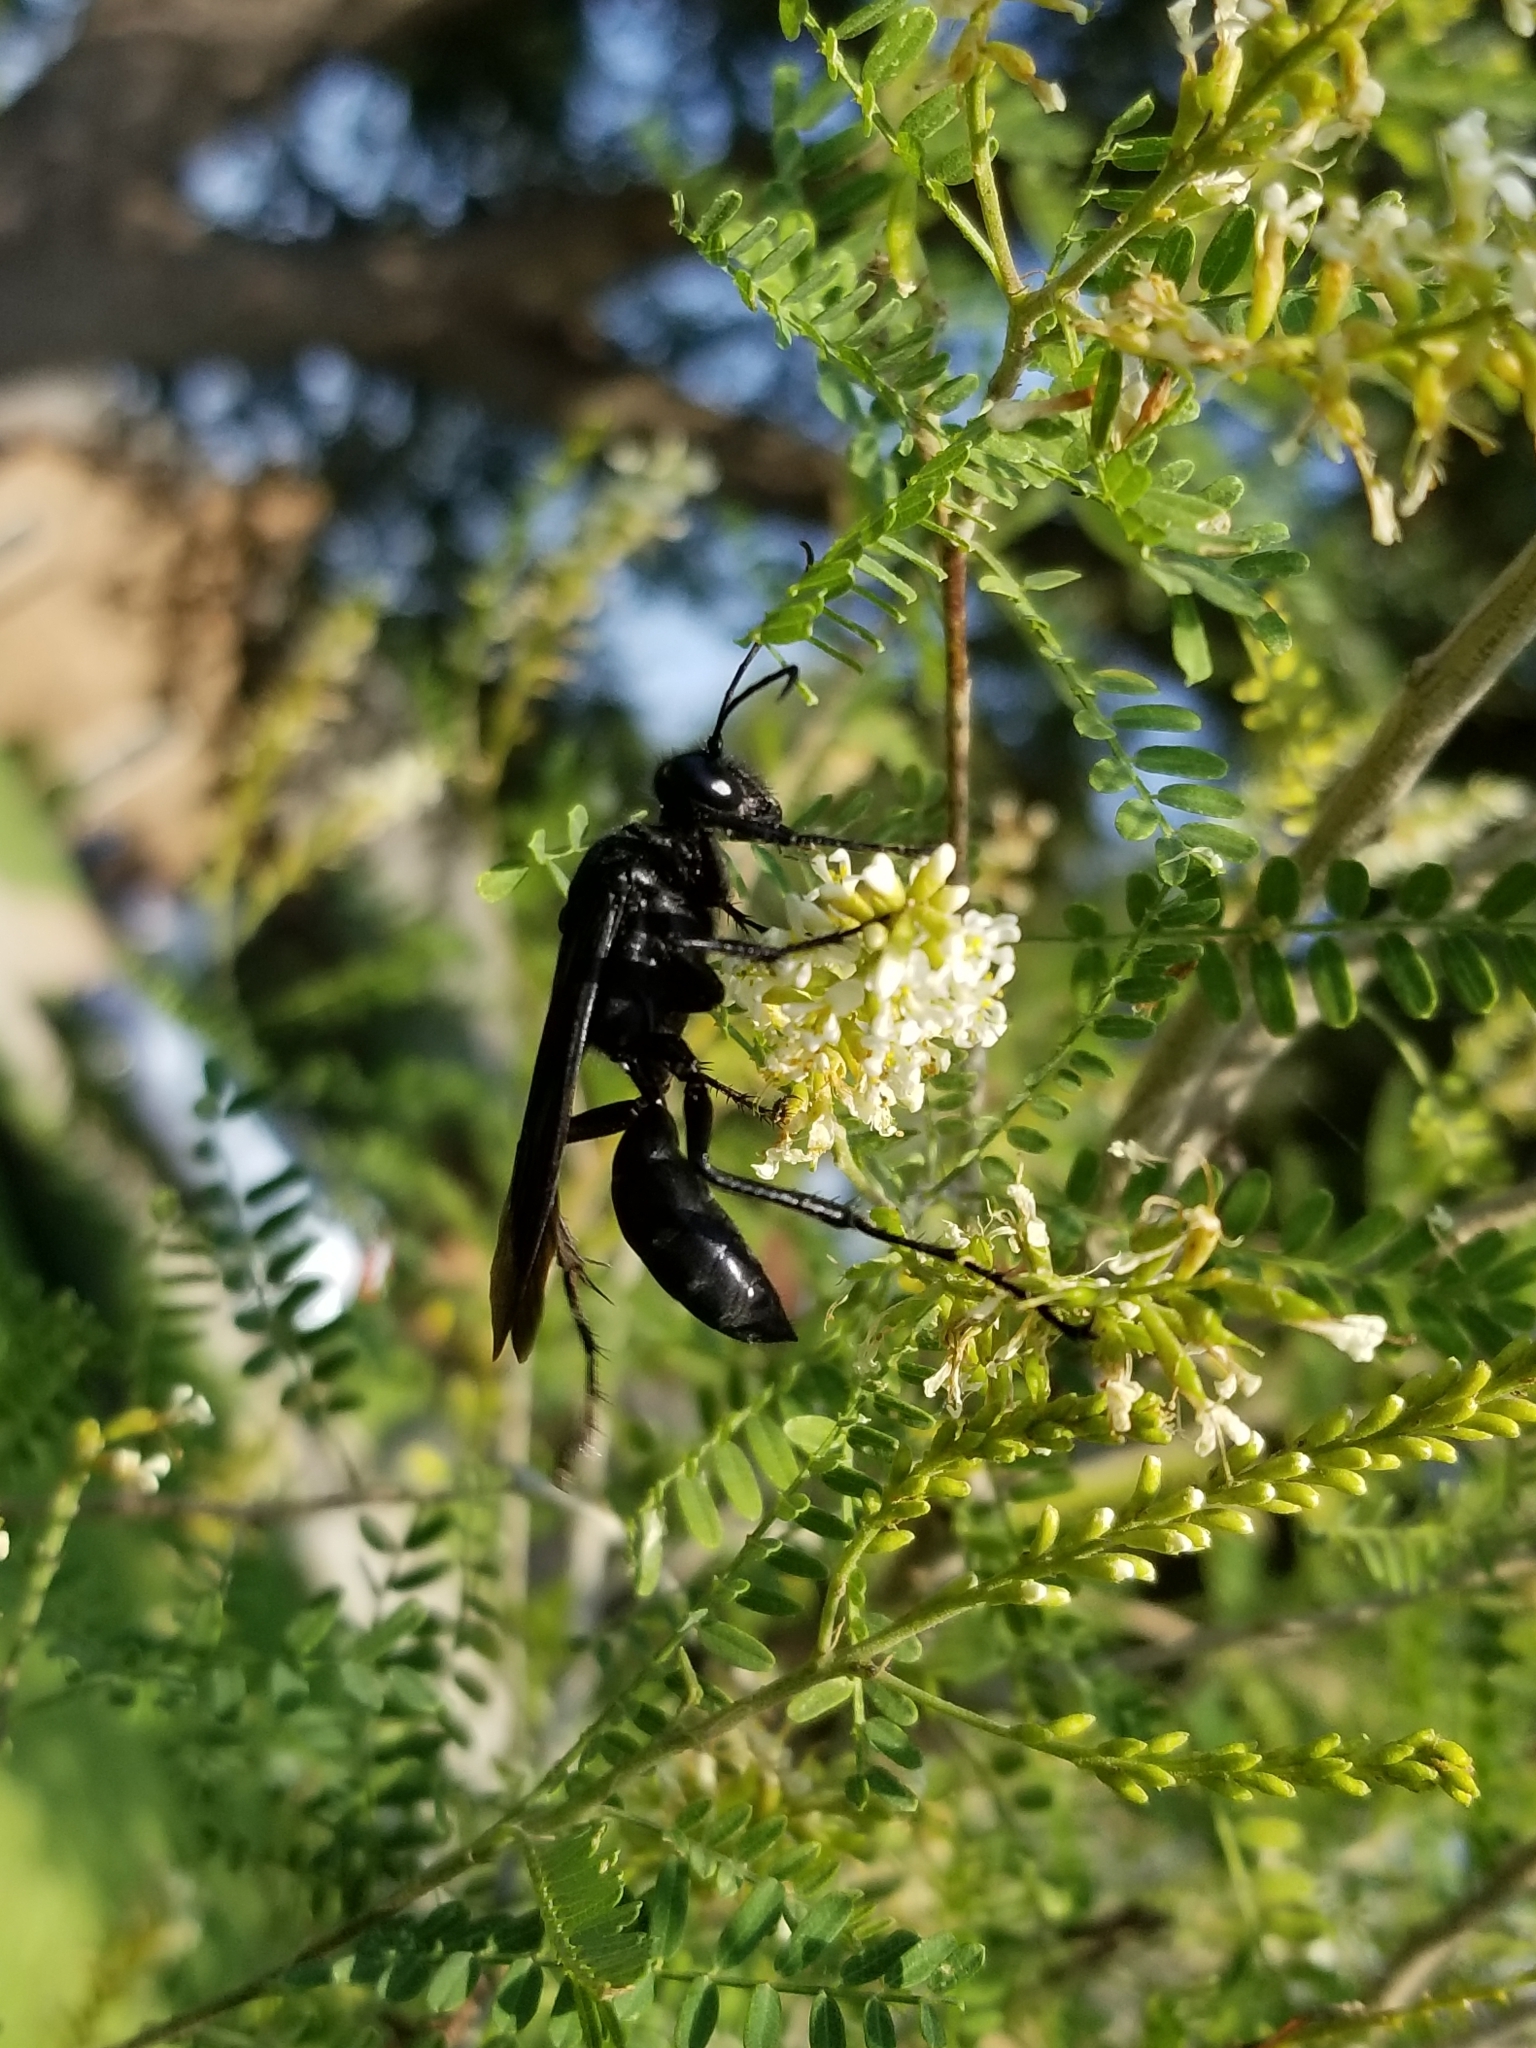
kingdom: Animalia
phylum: Arthropoda
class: Insecta
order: Hymenoptera
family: Sphecidae
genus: Sphex
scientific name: Sphex pensylvanicus
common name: Great black digger wasp
